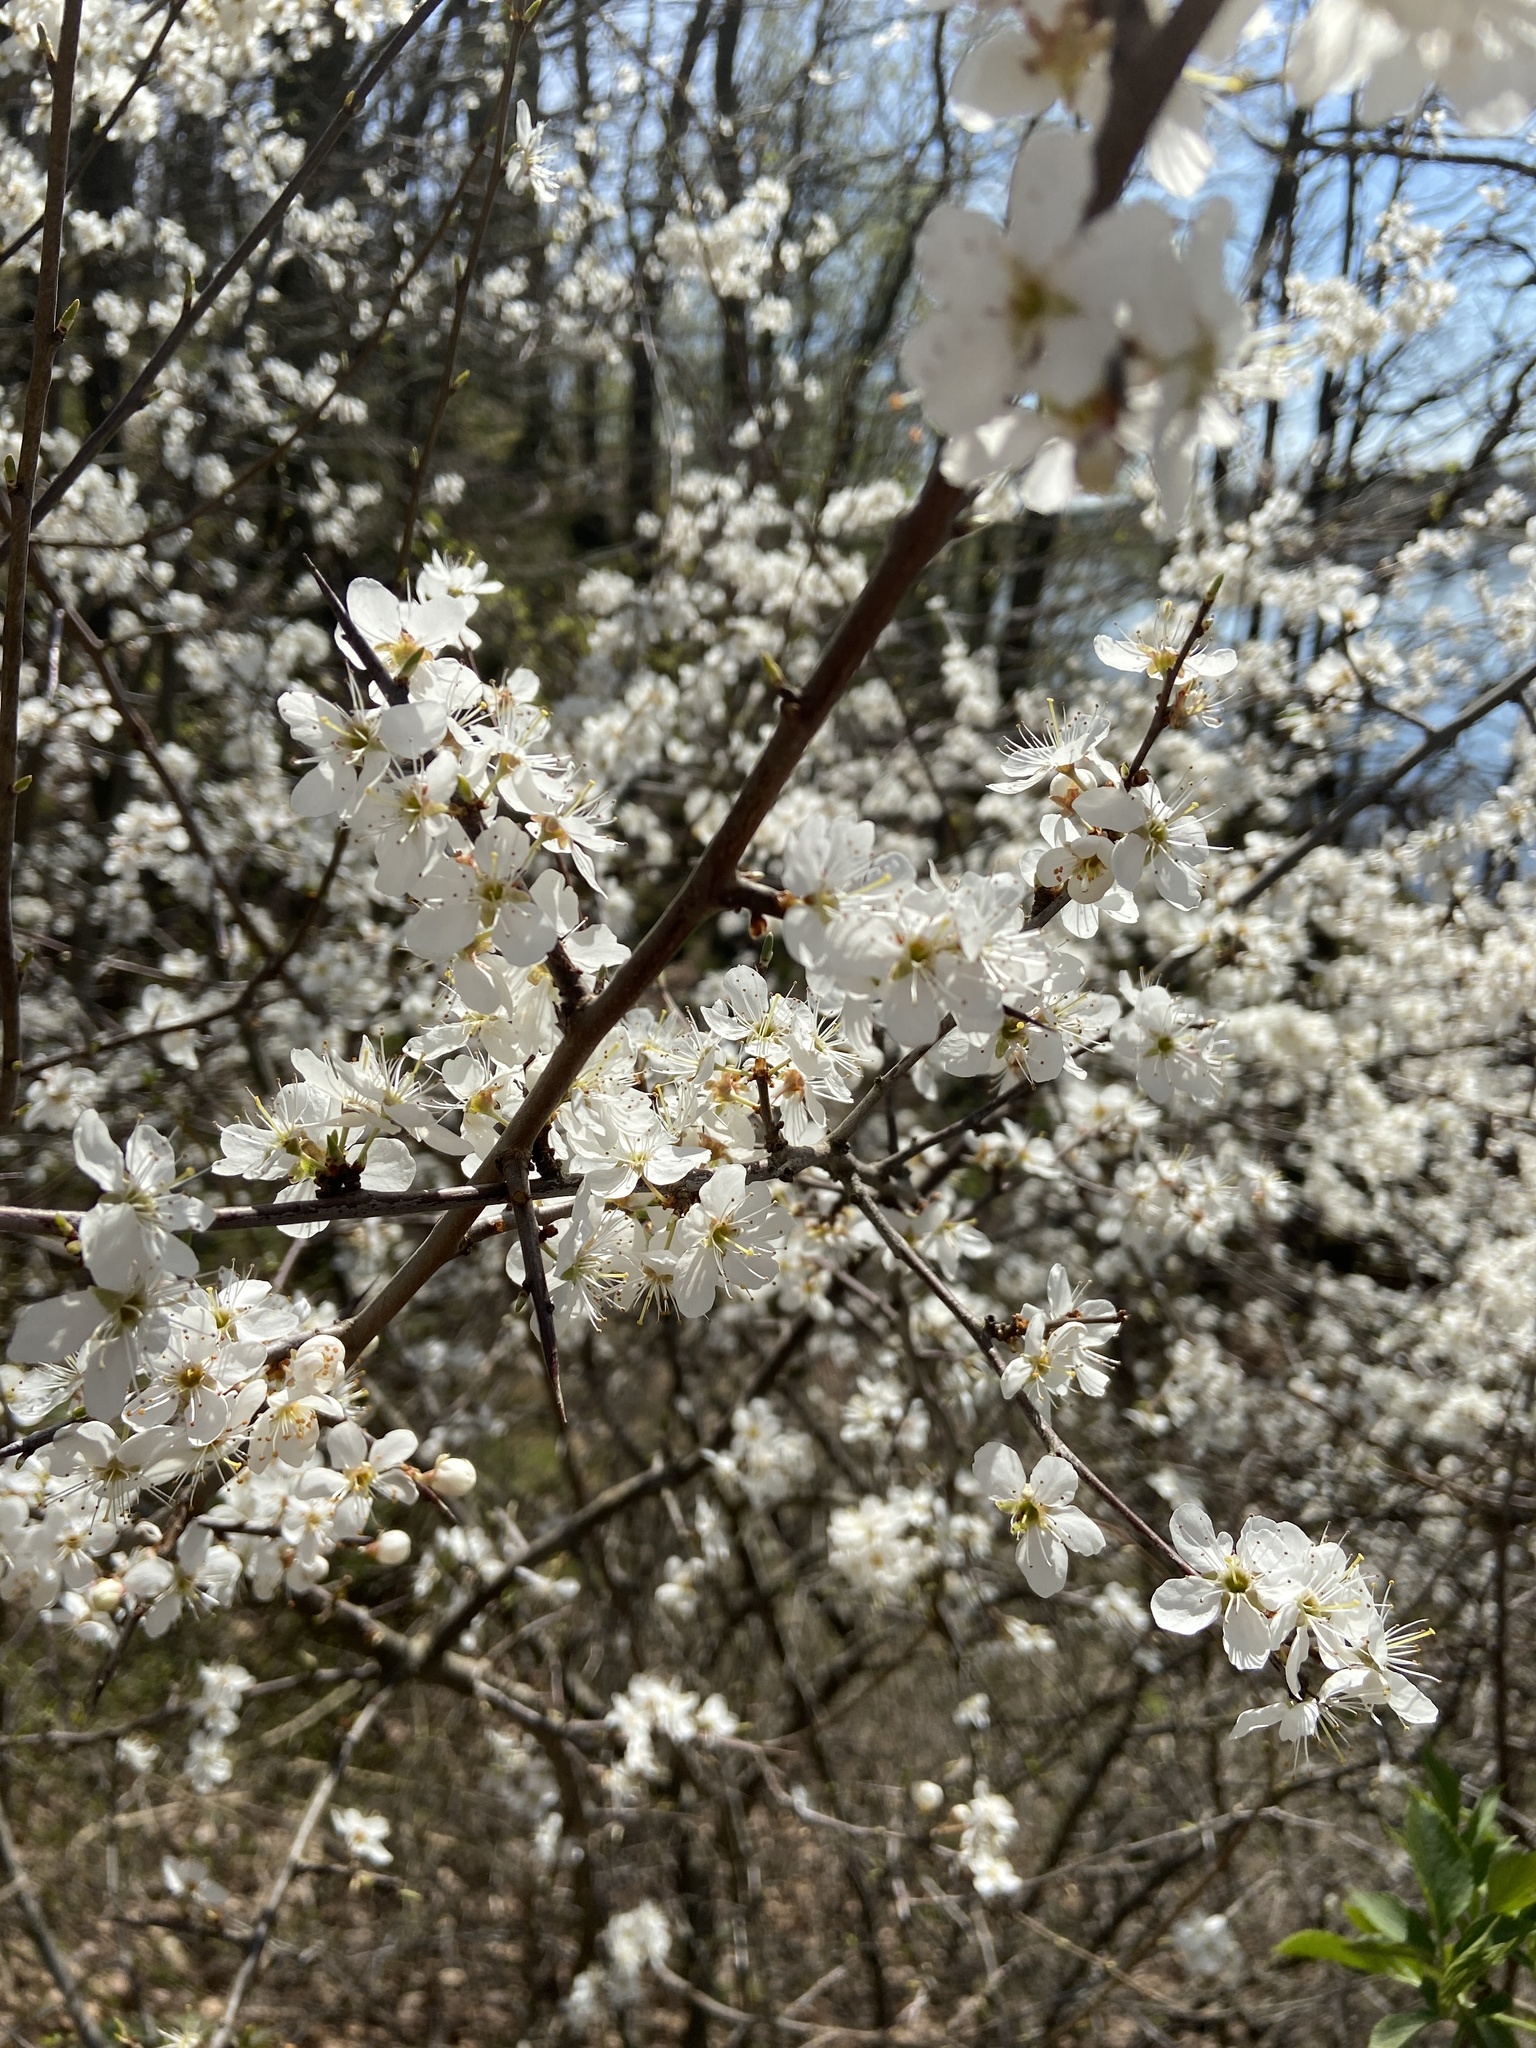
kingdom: Plantae
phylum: Tracheophyta
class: Magnoliopsida
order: Rosales
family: Rosaceae
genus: Prunus
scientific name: Prunus spinosa
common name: Blackthorn
